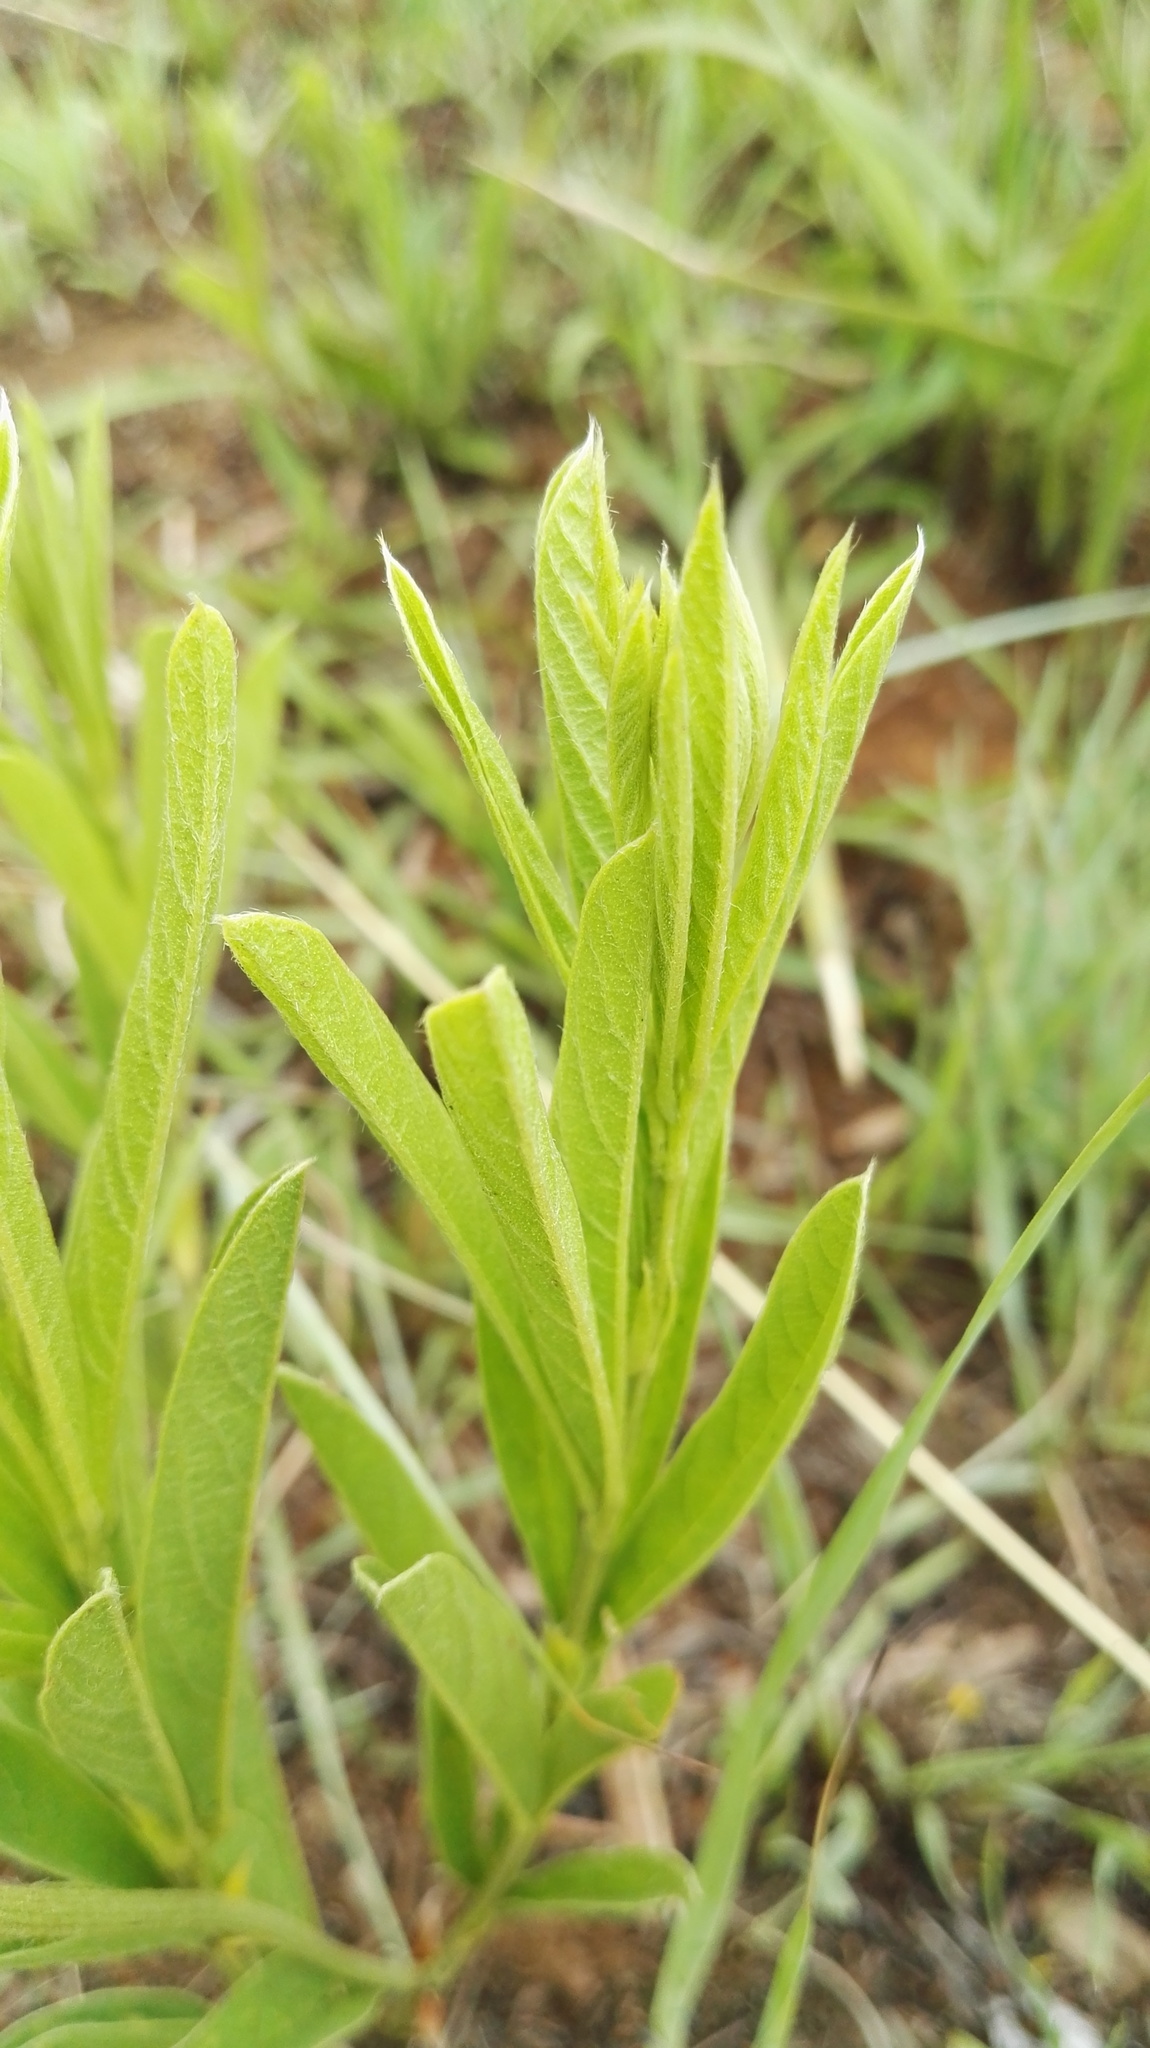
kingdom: Plantae
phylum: Tracheophyta
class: Magnoliopsida
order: Fabales
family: Fabaceae
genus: Eriosema
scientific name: Eriosema kraussianum
